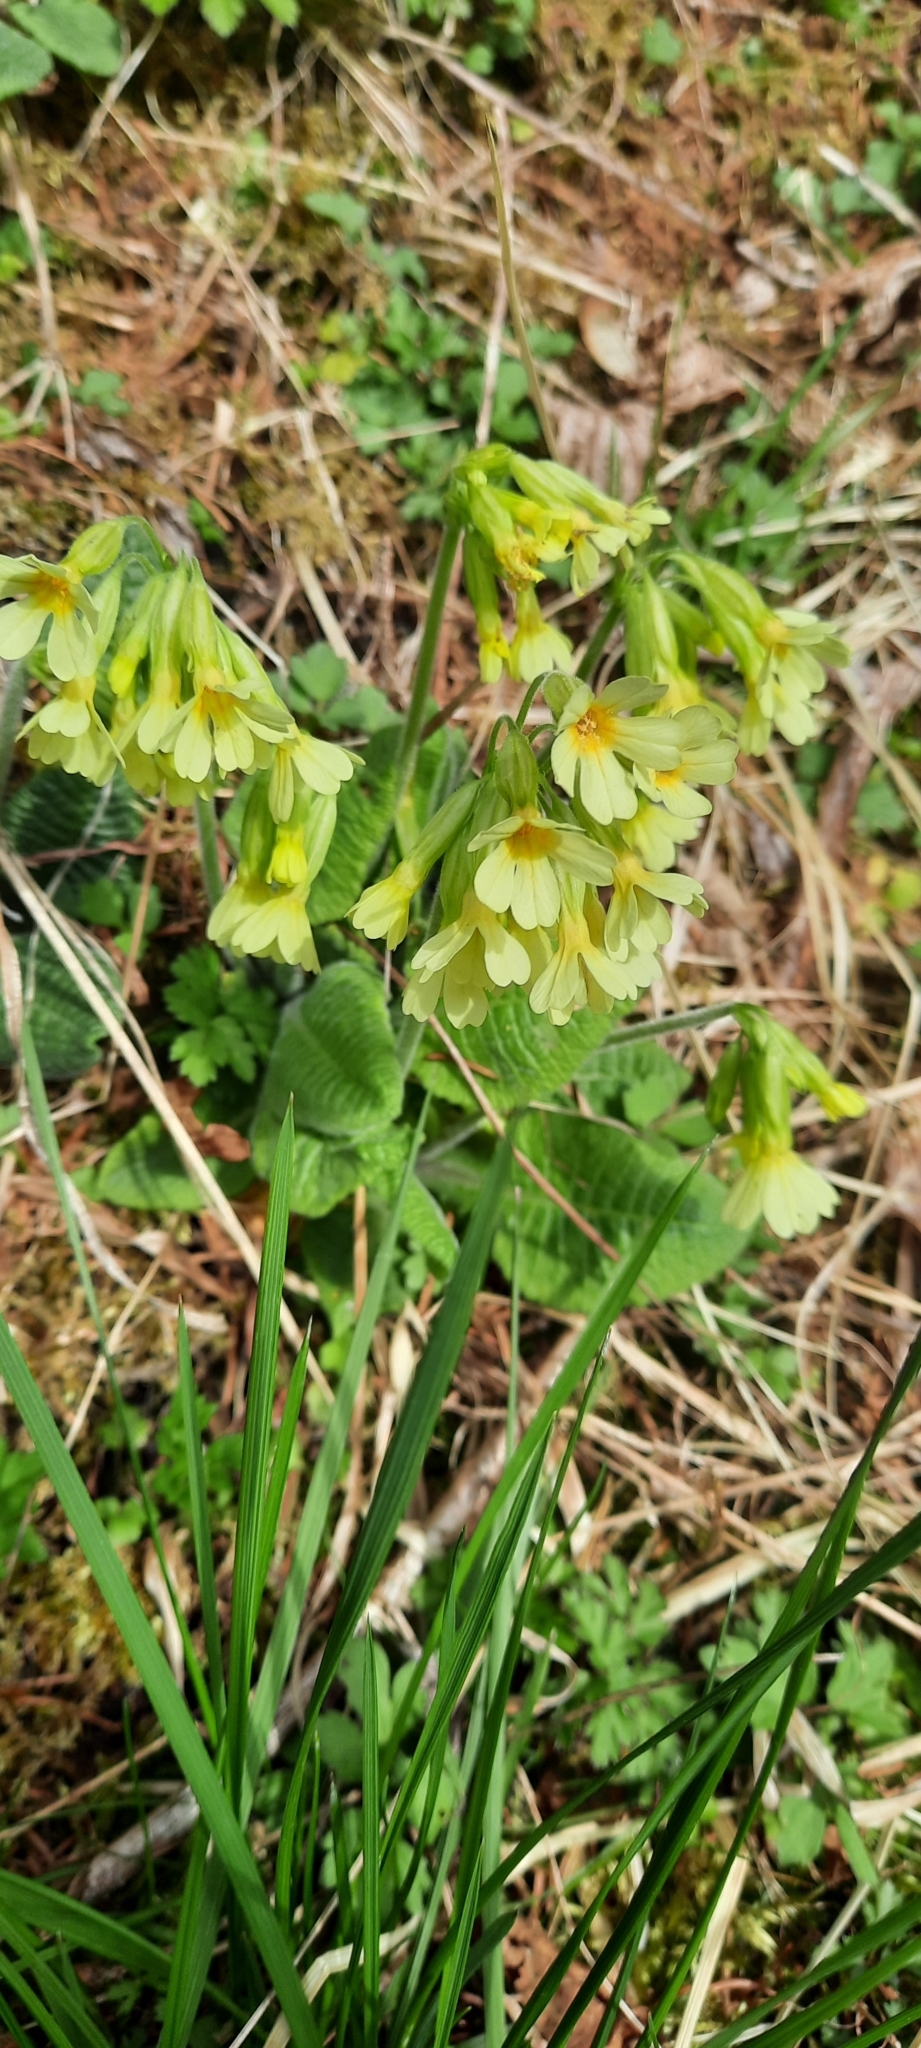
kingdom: Plantae
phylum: Tracheophyta
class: Magnoliopsida
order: Ericales
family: Primulaceae
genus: Primula
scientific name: Primula elatior
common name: Oxlip
